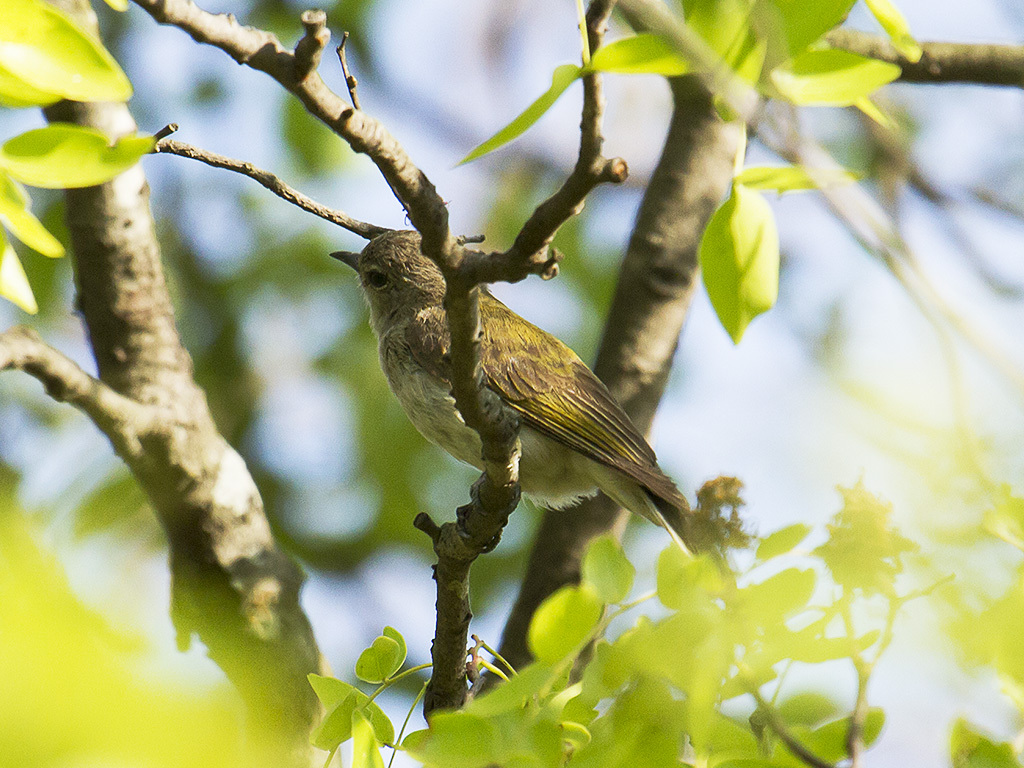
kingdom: Animalia
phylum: Chordata
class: Aves
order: Piciformes
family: Indicatoridae
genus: Prodotiscus
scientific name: Prodotiscus zambesiae
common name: Green-backed honeybird
